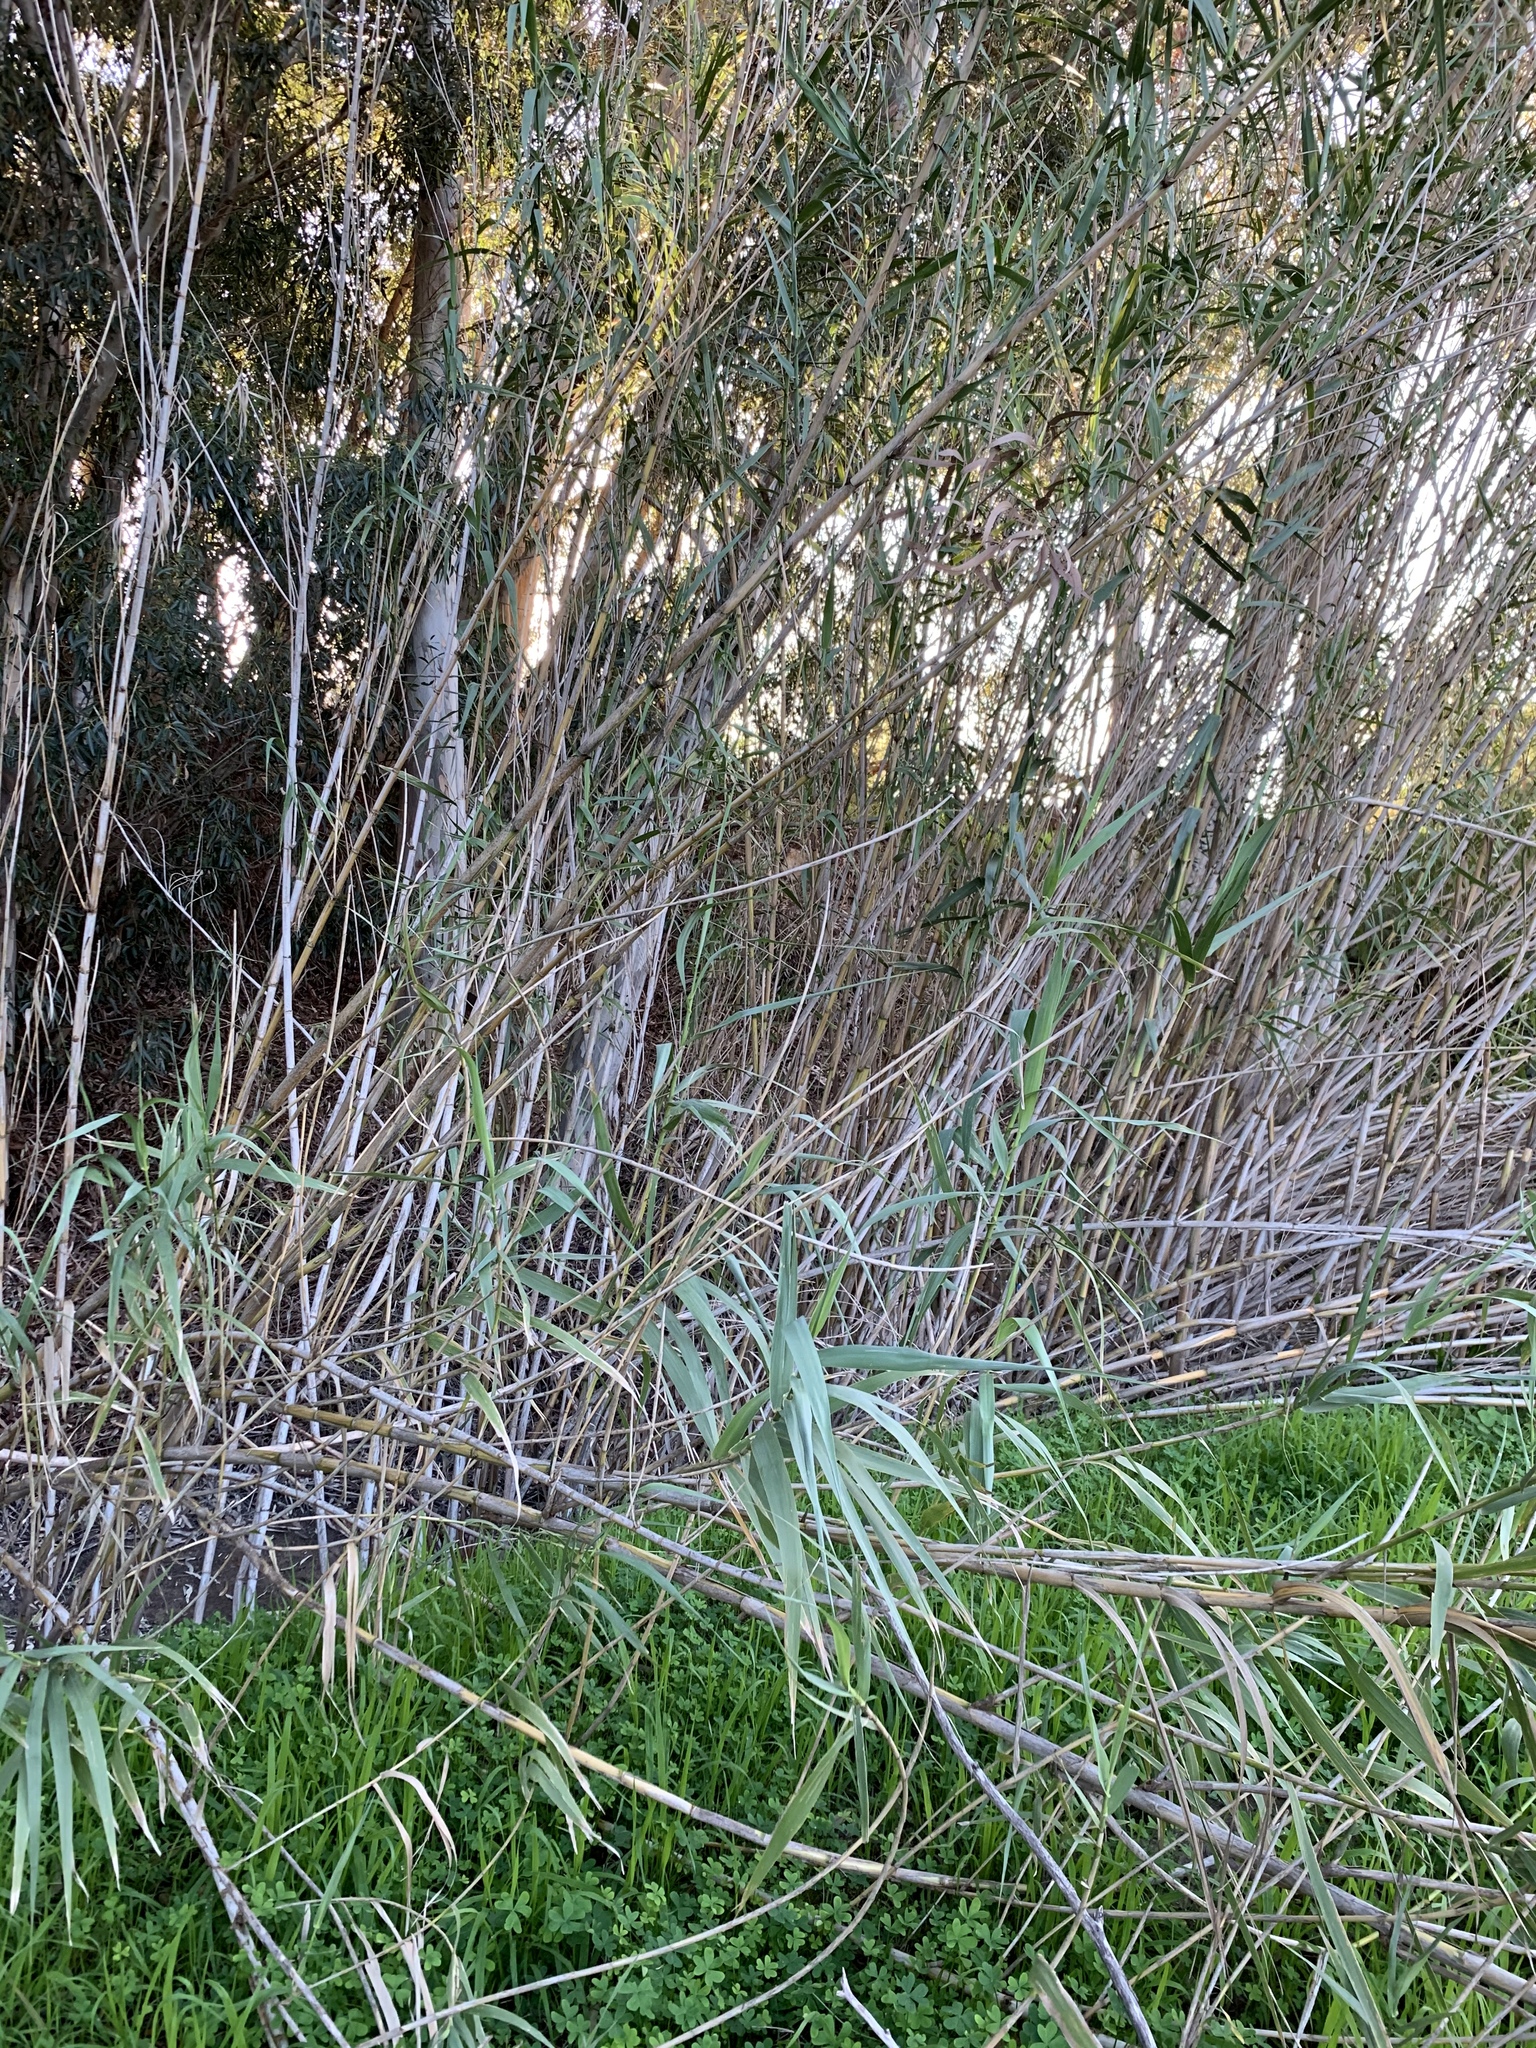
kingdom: Plantae
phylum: Tracheophyta
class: Liliopsida
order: Poales
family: Poaceae
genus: Arundo
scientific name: Arundo donax
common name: Giant reed
